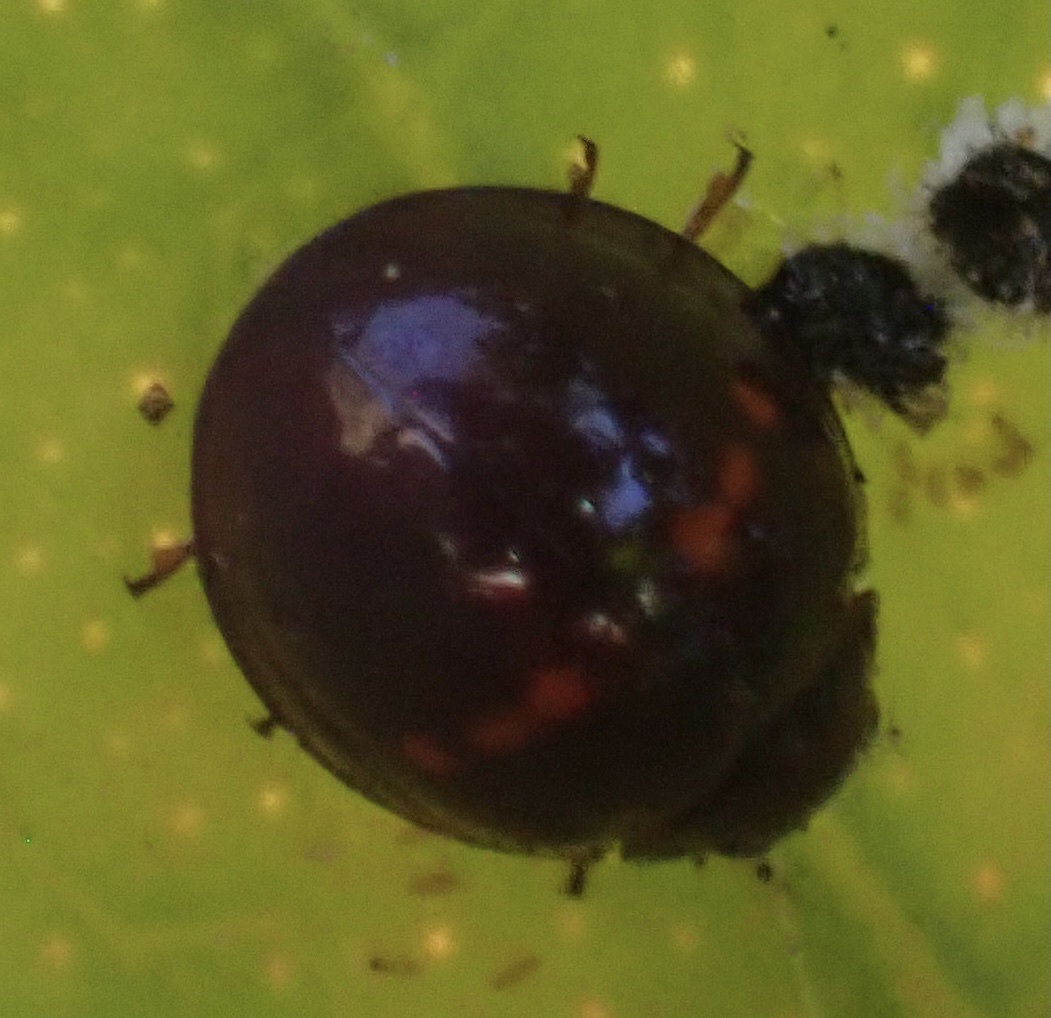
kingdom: Animalia
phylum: Arthropoda
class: Insecta
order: Coleoptera
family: Coccinellidae
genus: Chilocorus
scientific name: Chilocorus bipustulatus
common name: Heather ladybird
